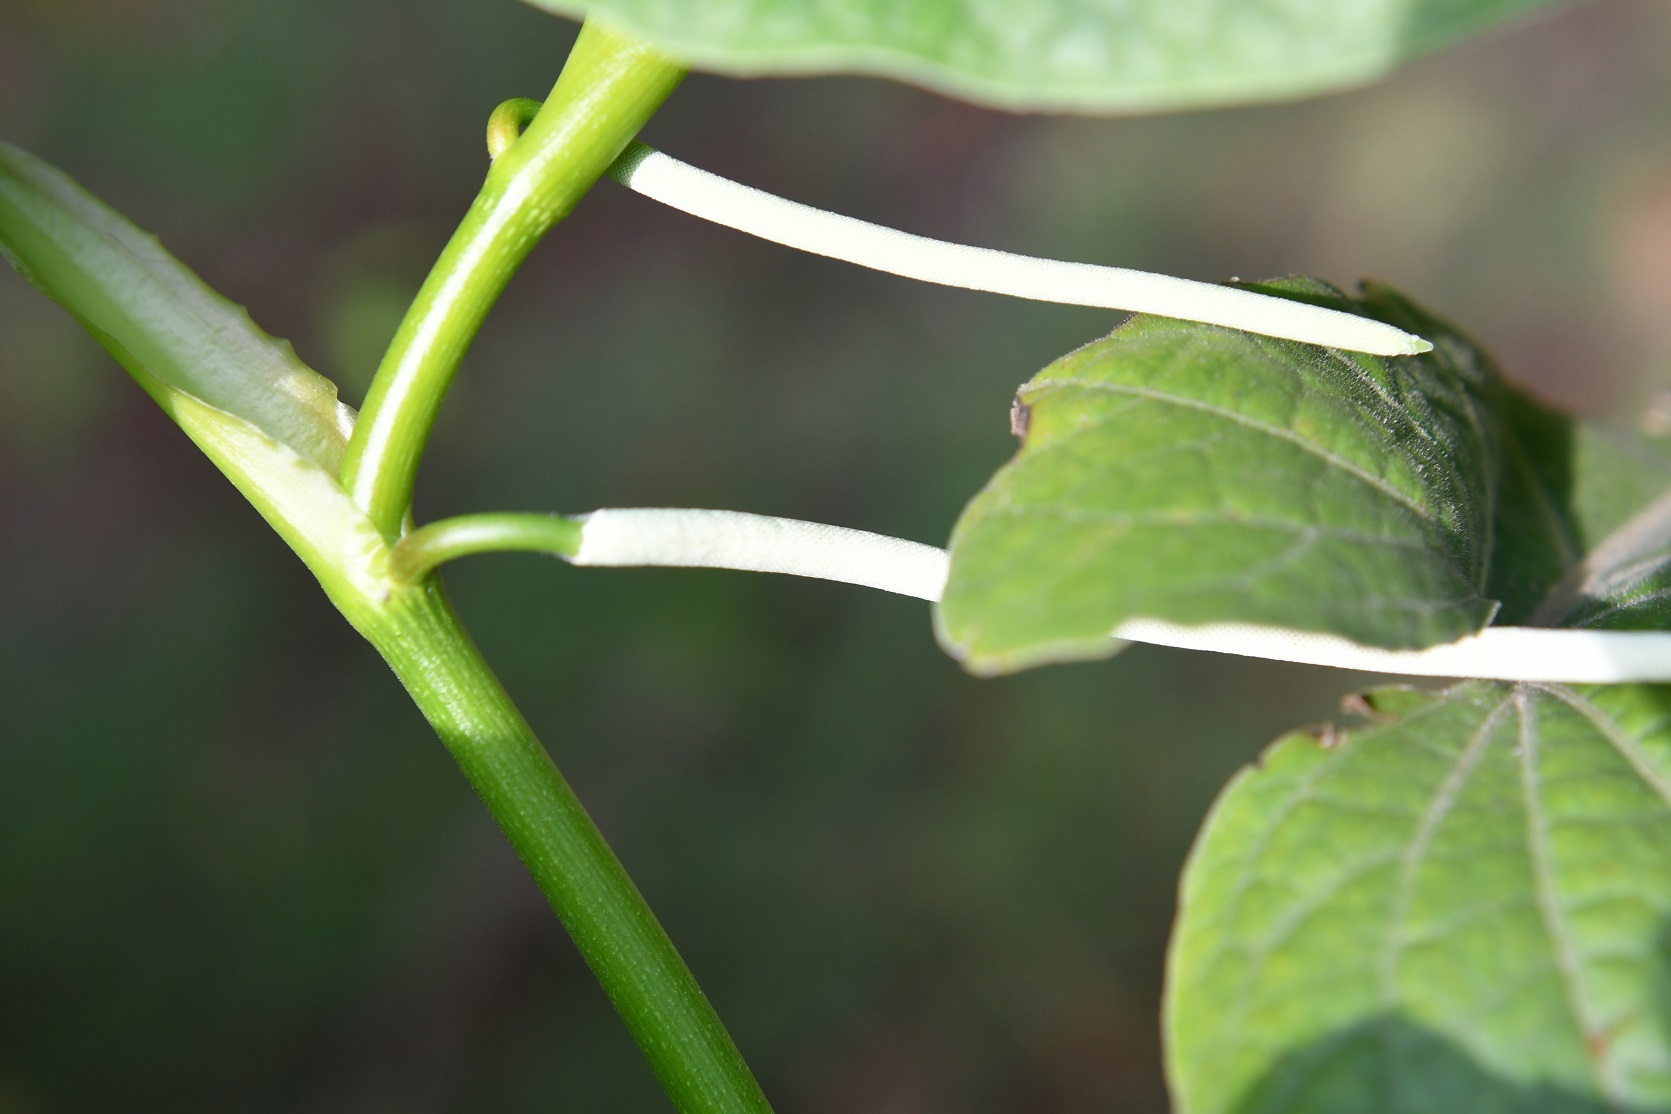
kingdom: Plantae
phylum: Tracheophyta
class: Magnoliopsida
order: Piperales
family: Piperaceae
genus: Piper
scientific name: Piper auritum
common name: Vera cruz pepper
